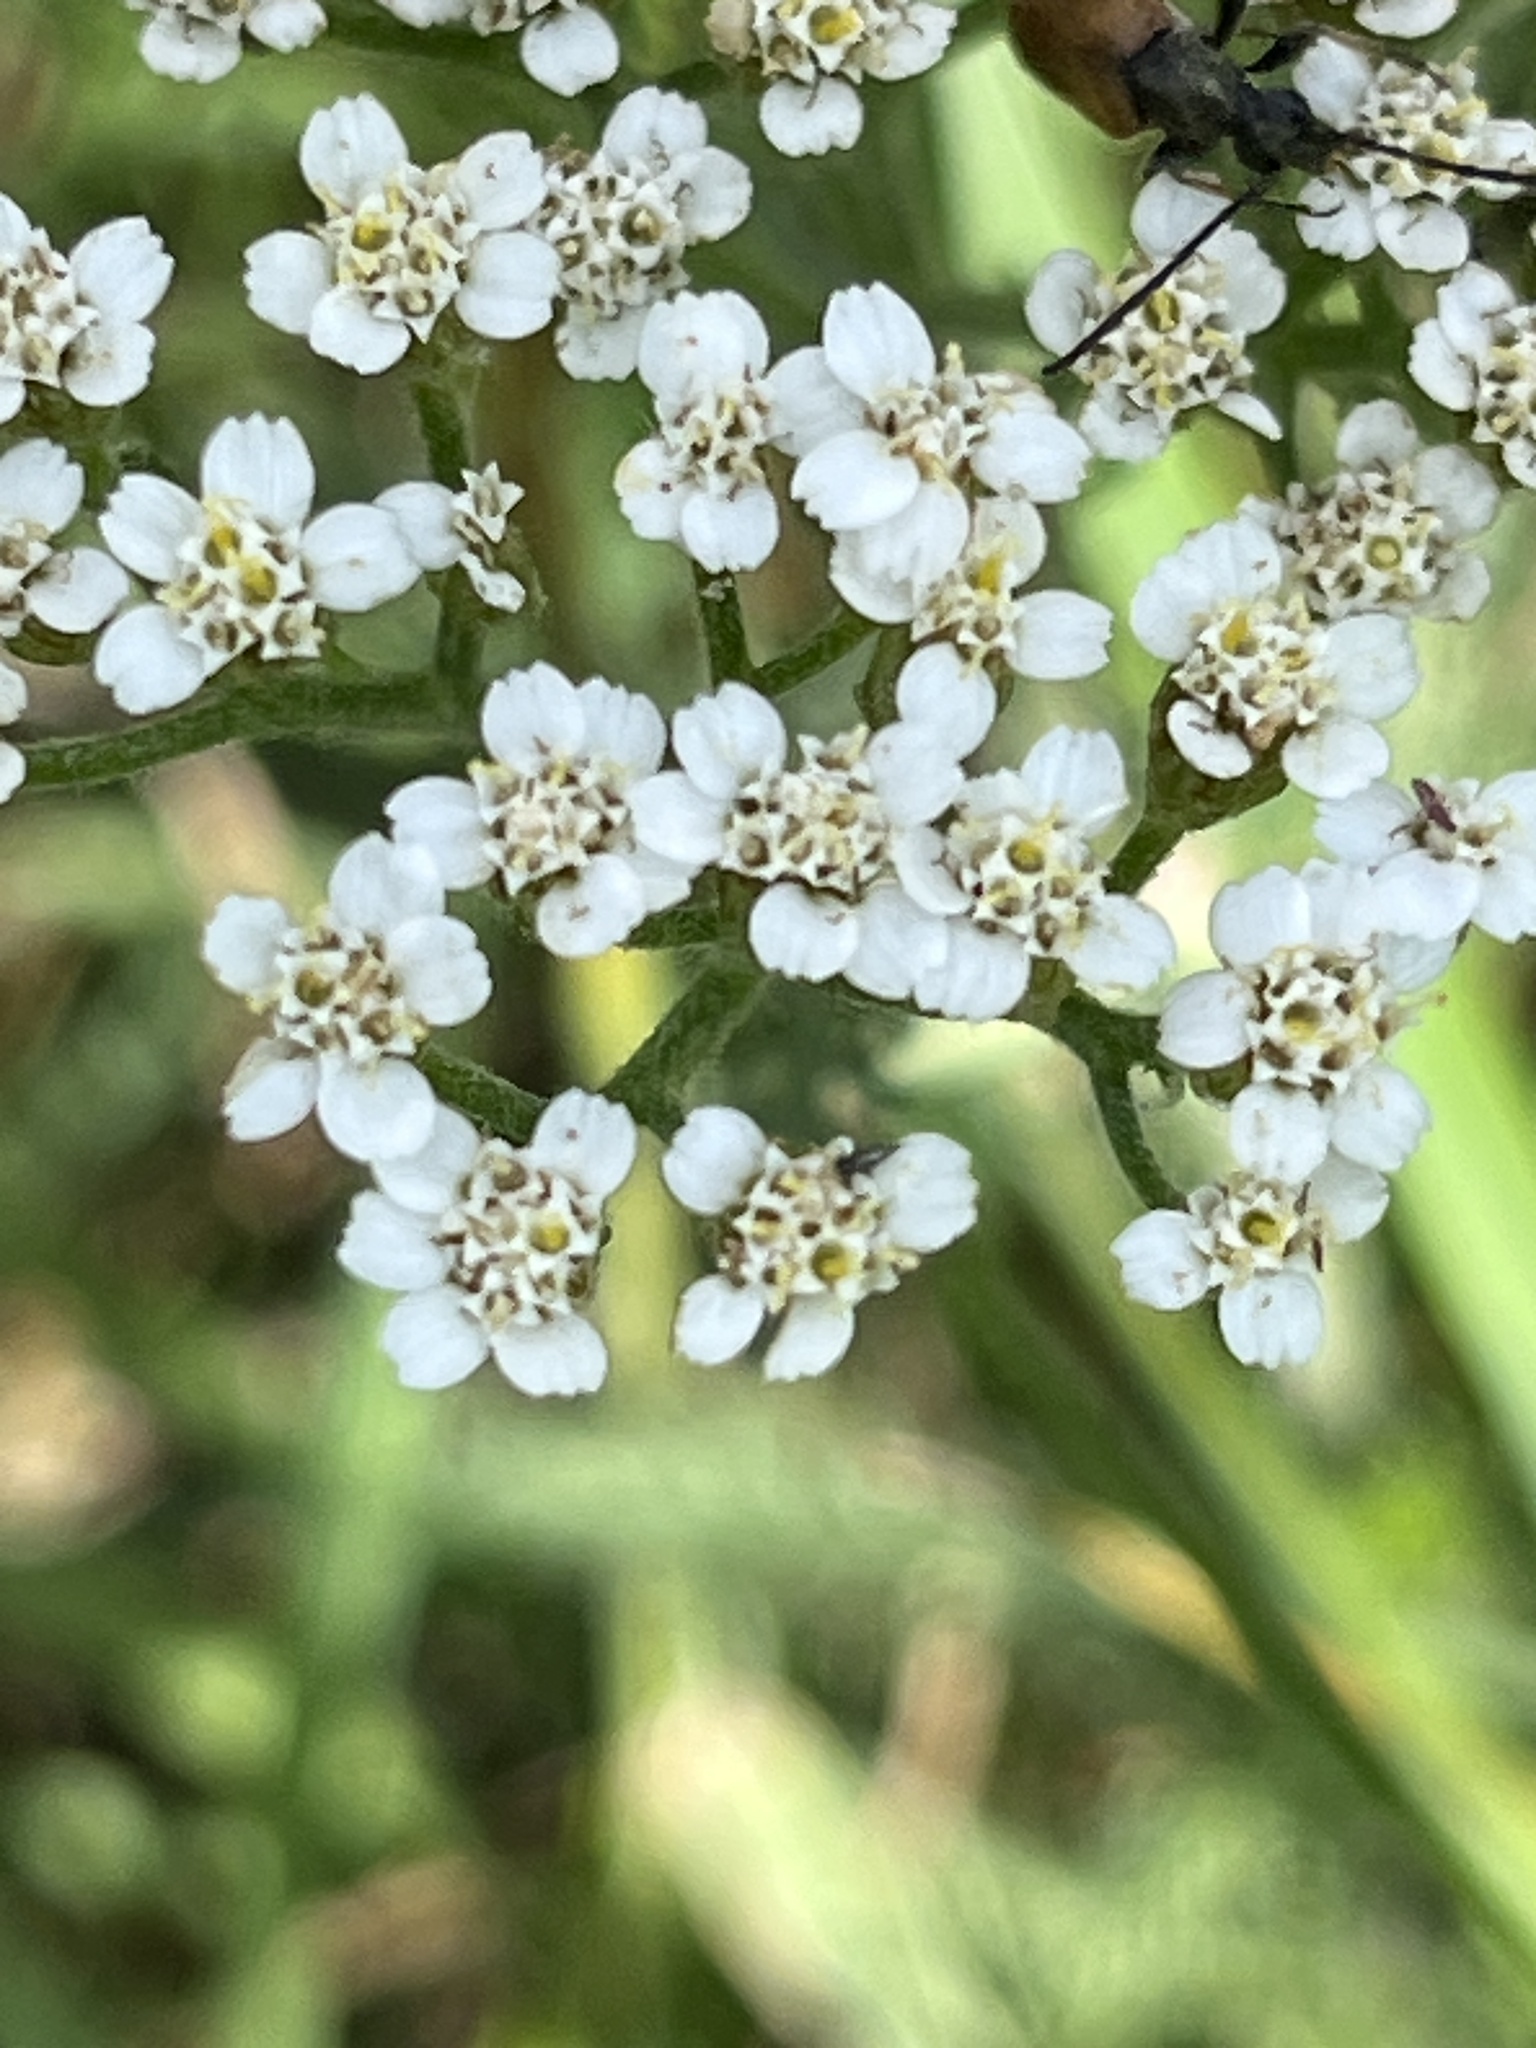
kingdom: Plantae
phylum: Tracheophyta
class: Magnoliopsida
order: Asterales
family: Asteraceae
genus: Achillea
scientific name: Achillea millefolium
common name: Yarrow
